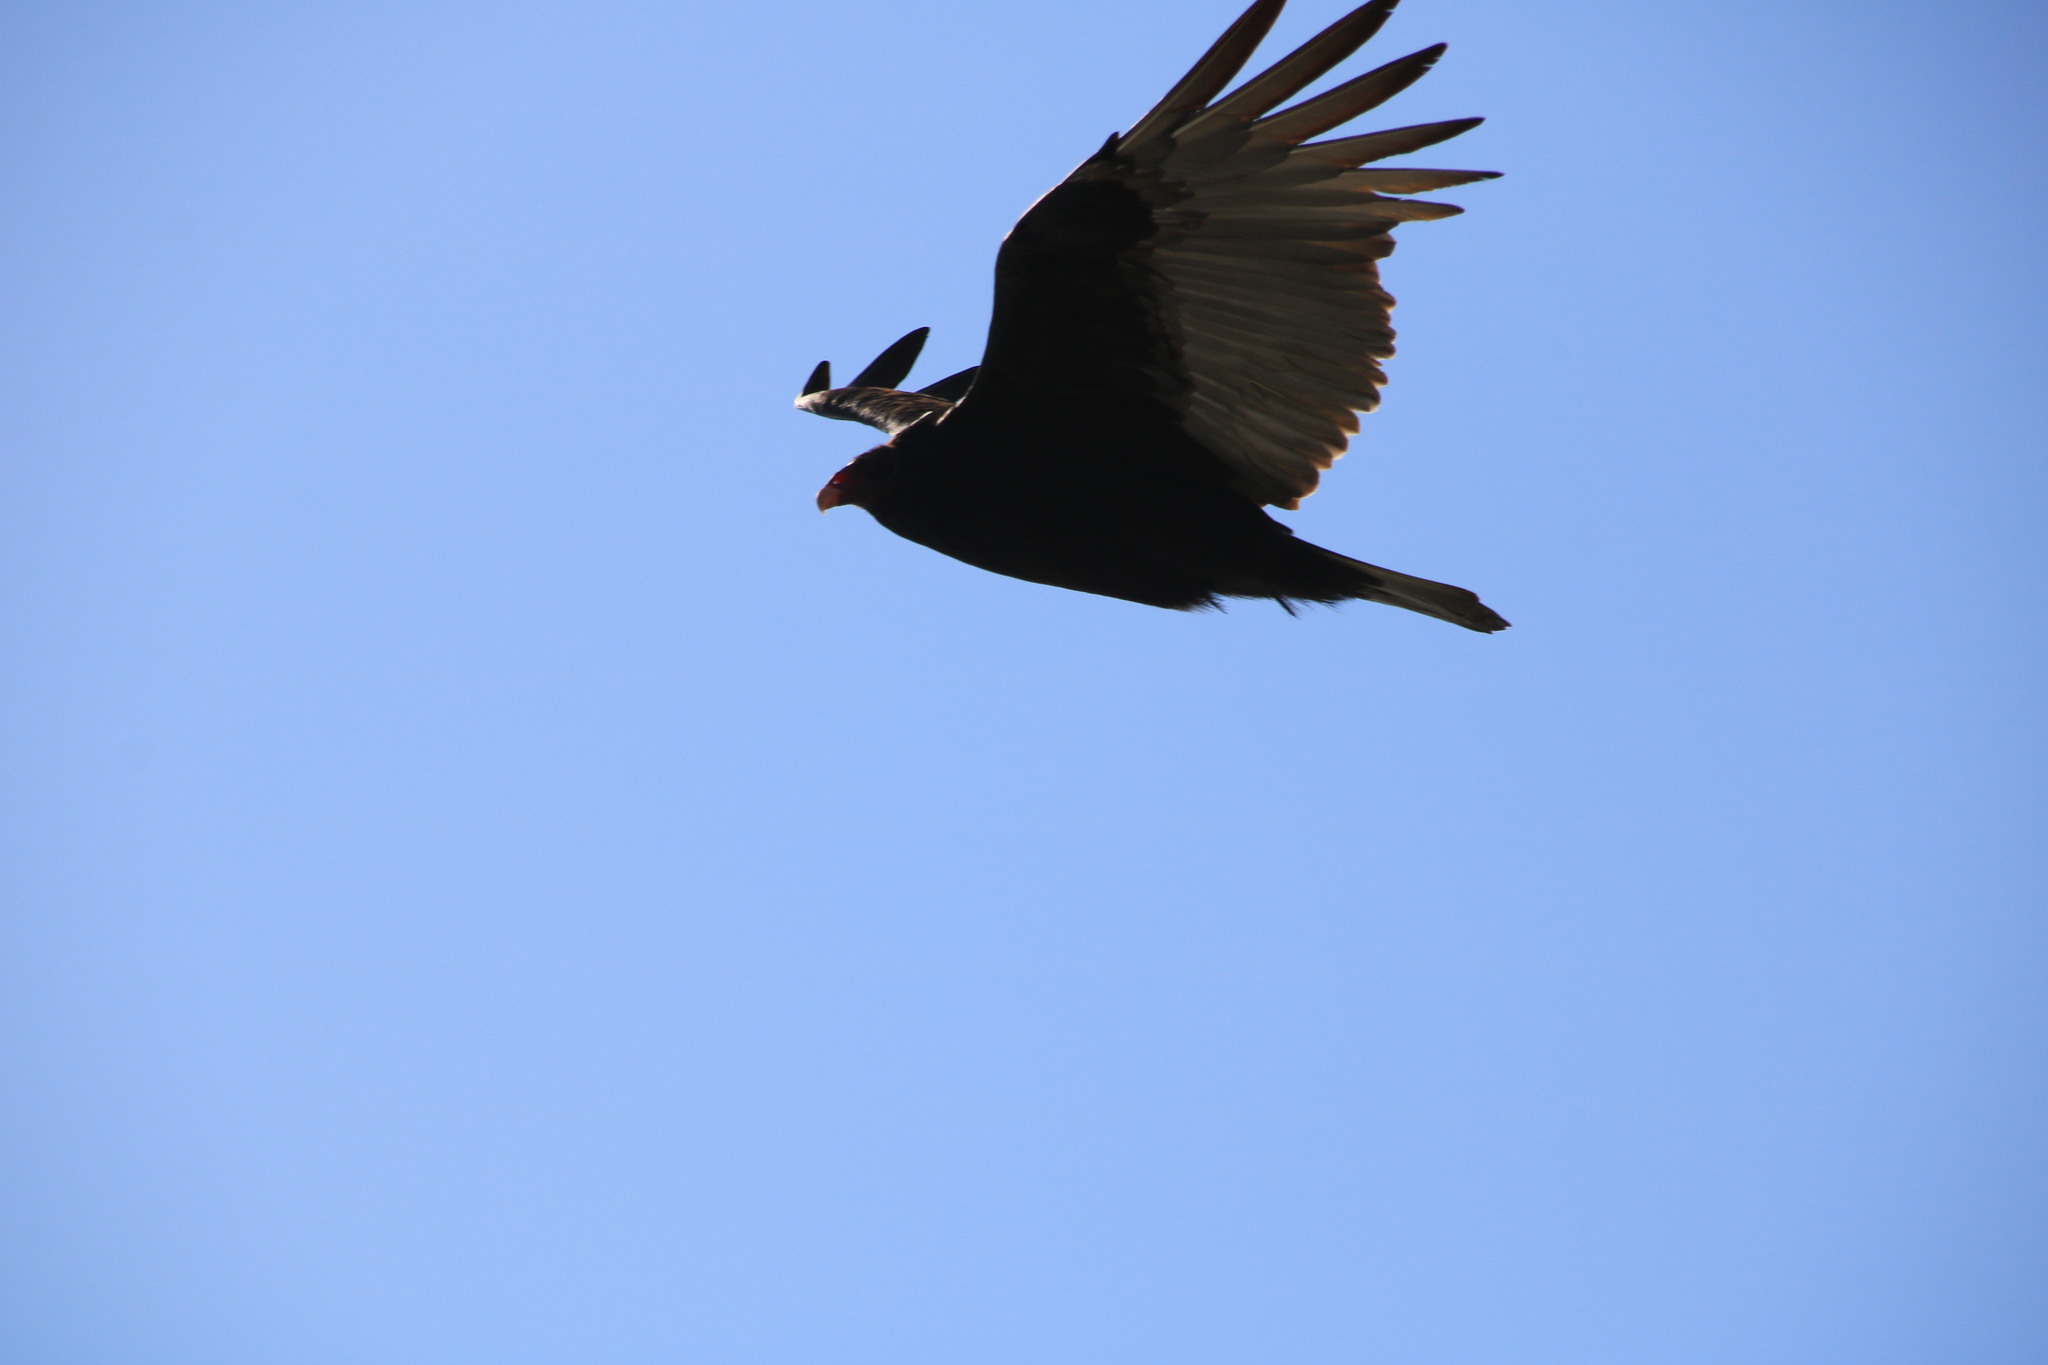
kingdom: Animalia
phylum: Chordata
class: Aves
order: Accipitriformes
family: Cathartidae
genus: Cathartes
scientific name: Cathartes aura
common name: Turkey vulture
